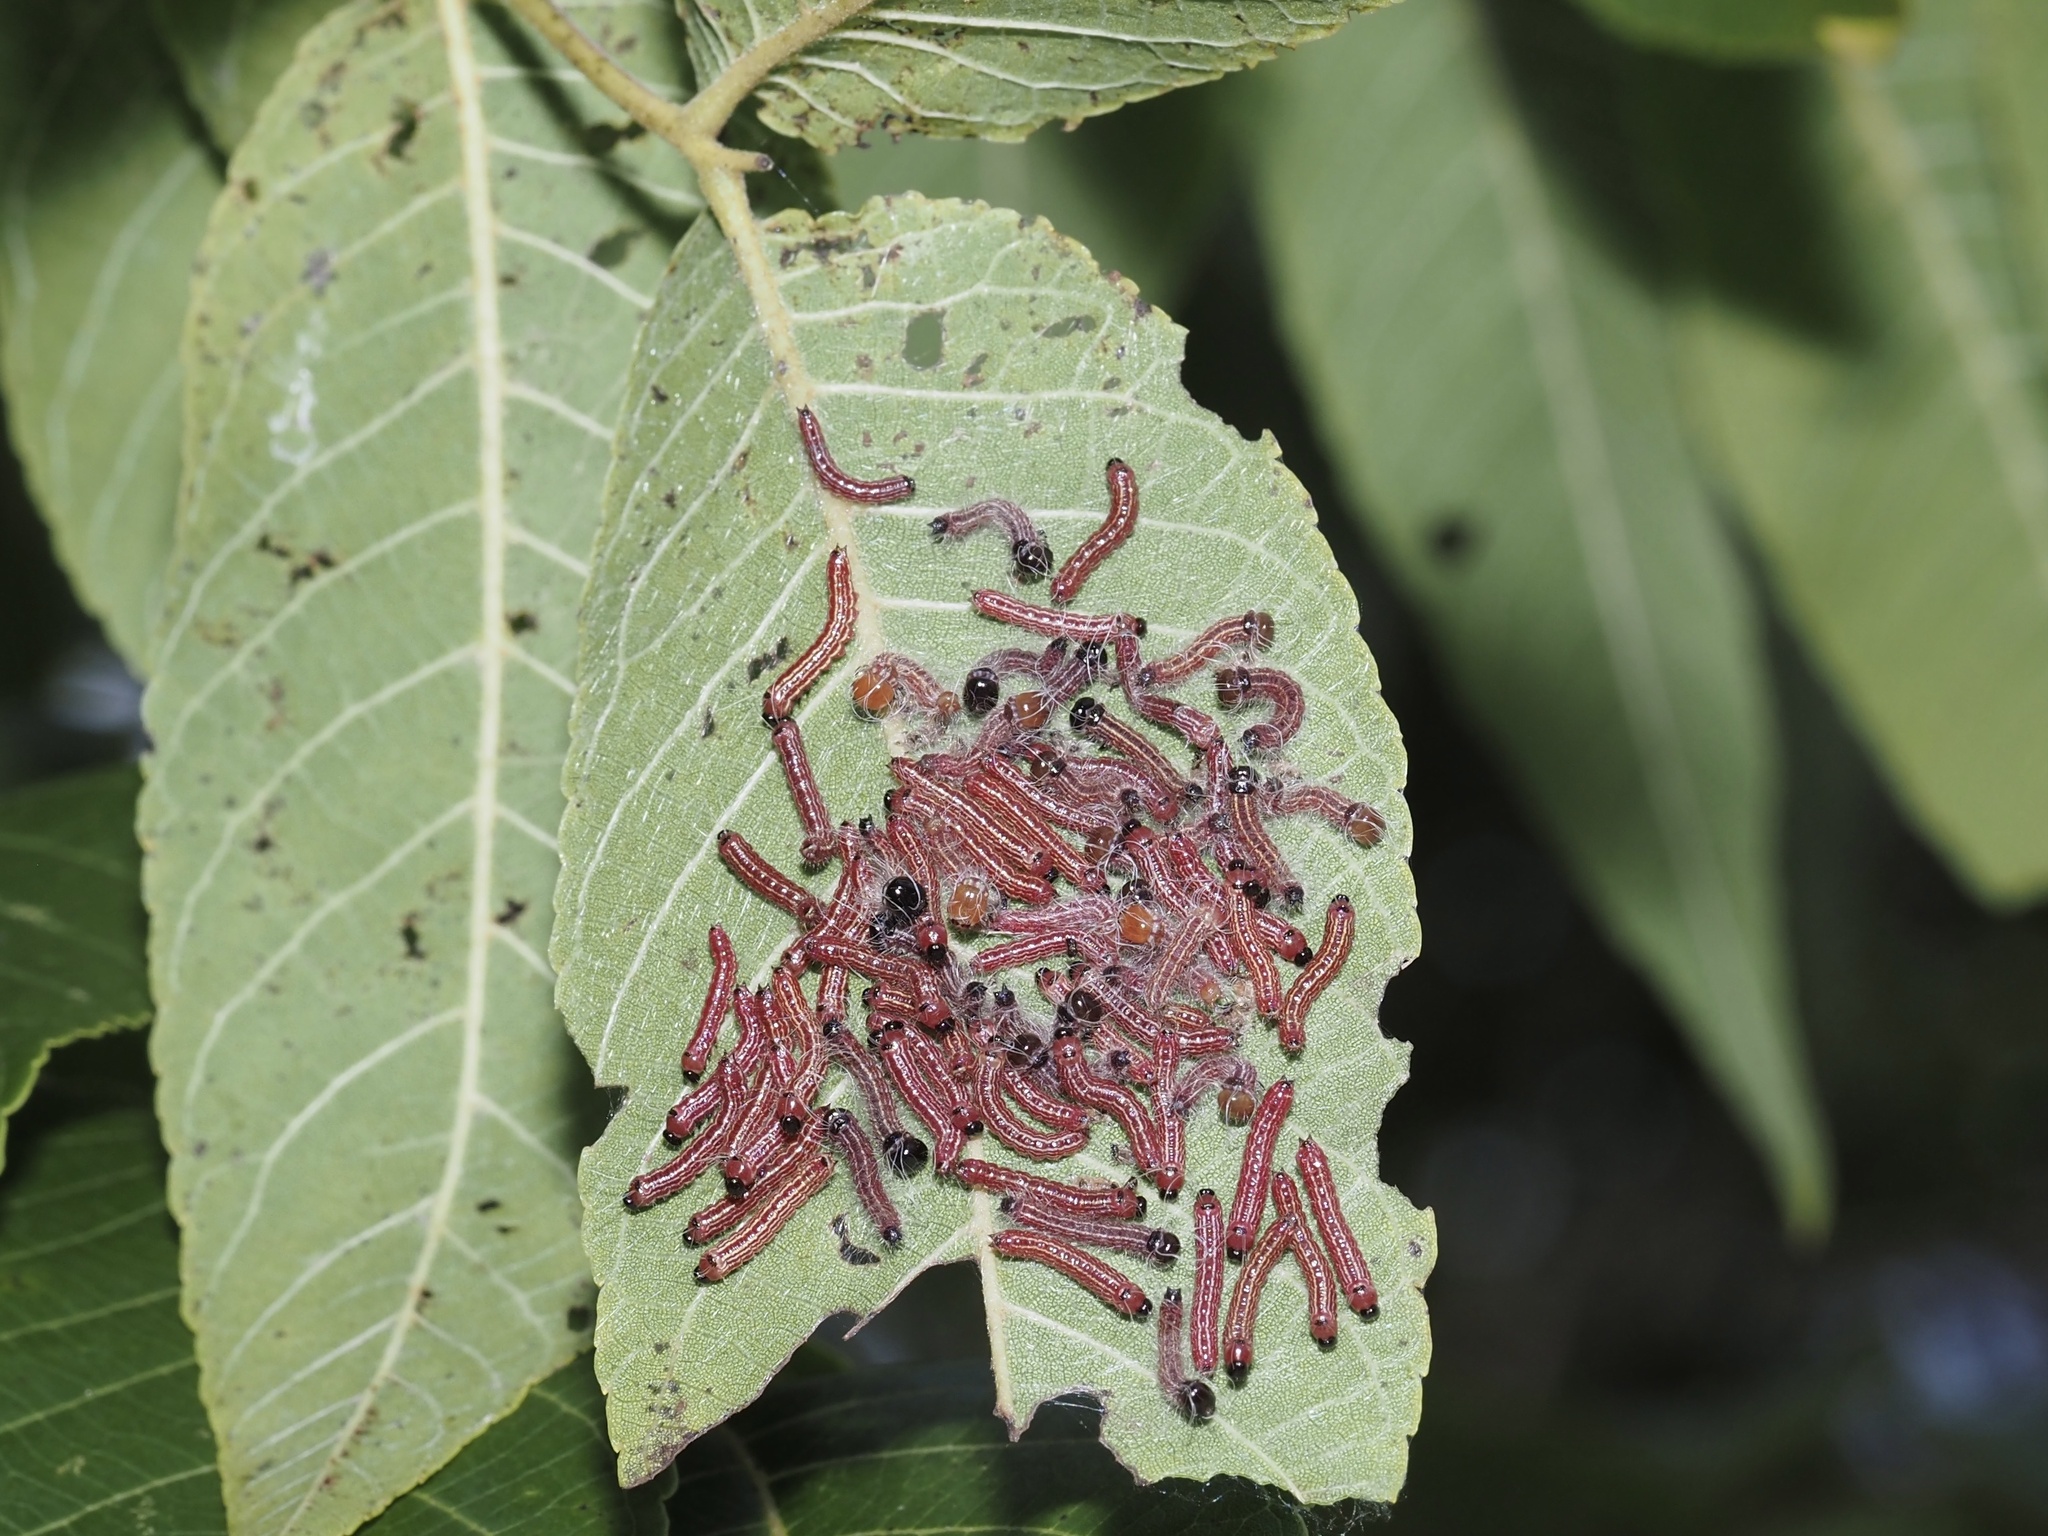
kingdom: Animalia
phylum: Arthropoda
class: Insecta
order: Lepidoptera
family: Notodontidae
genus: Datana
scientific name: Datana integerrima
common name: Walnut caterpillar
